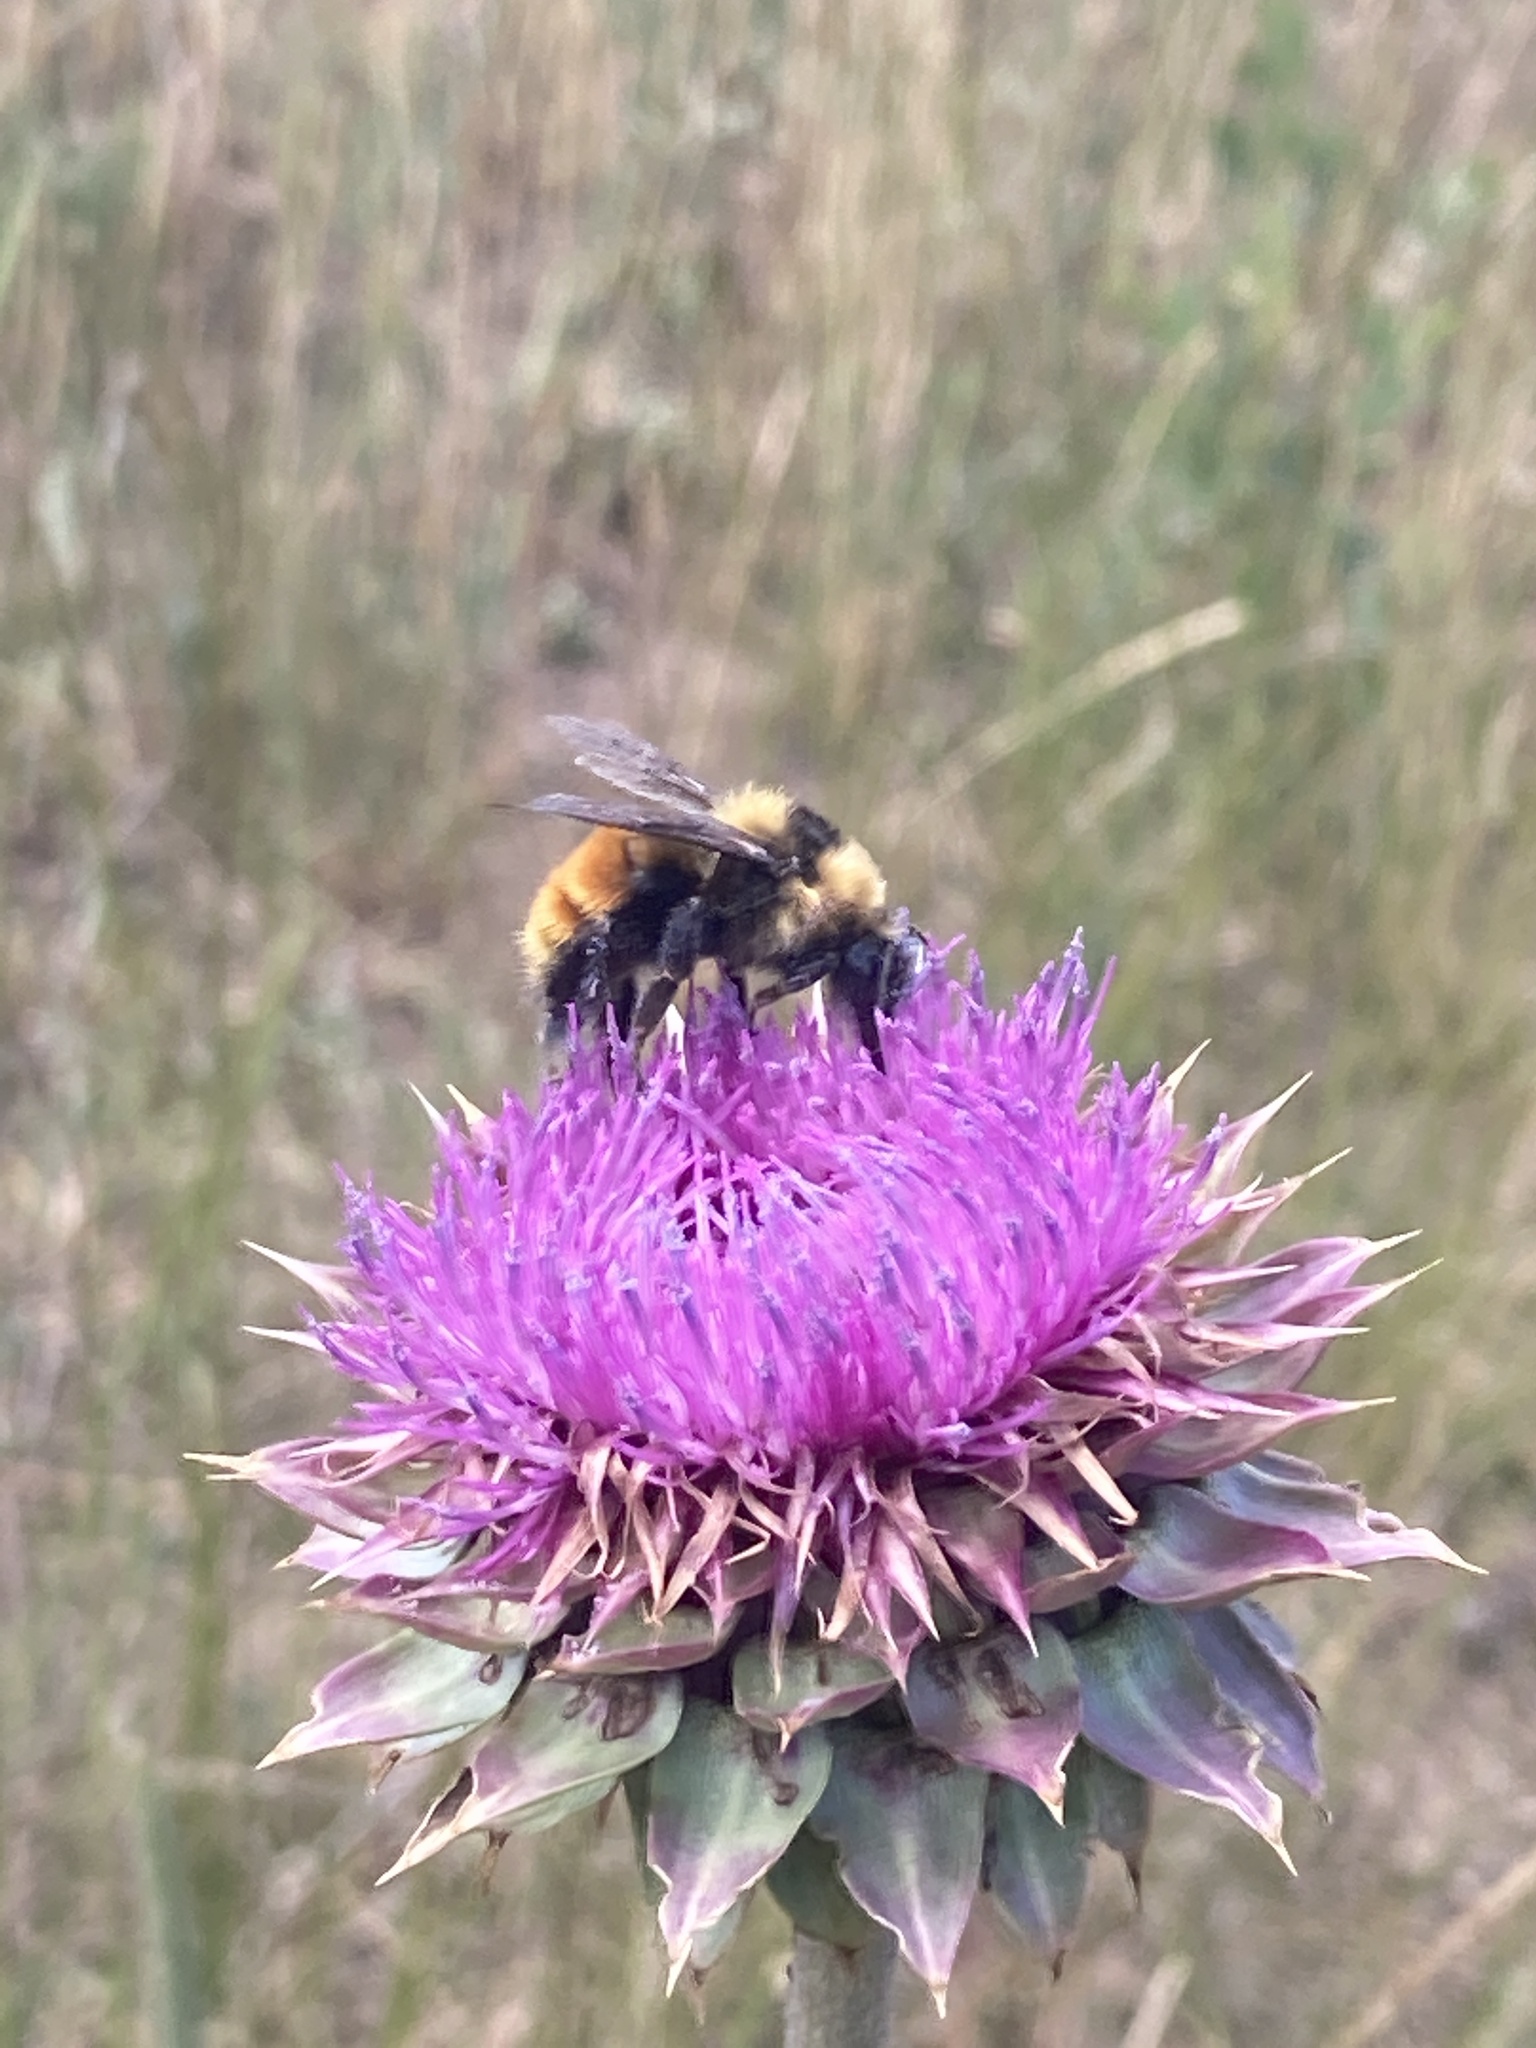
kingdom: Animalia
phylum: Arthropoda
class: Insecta
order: Hymenoptera
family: Apidae
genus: Bombus
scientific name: Bombus appositus
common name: White-shouldered bumble bee
